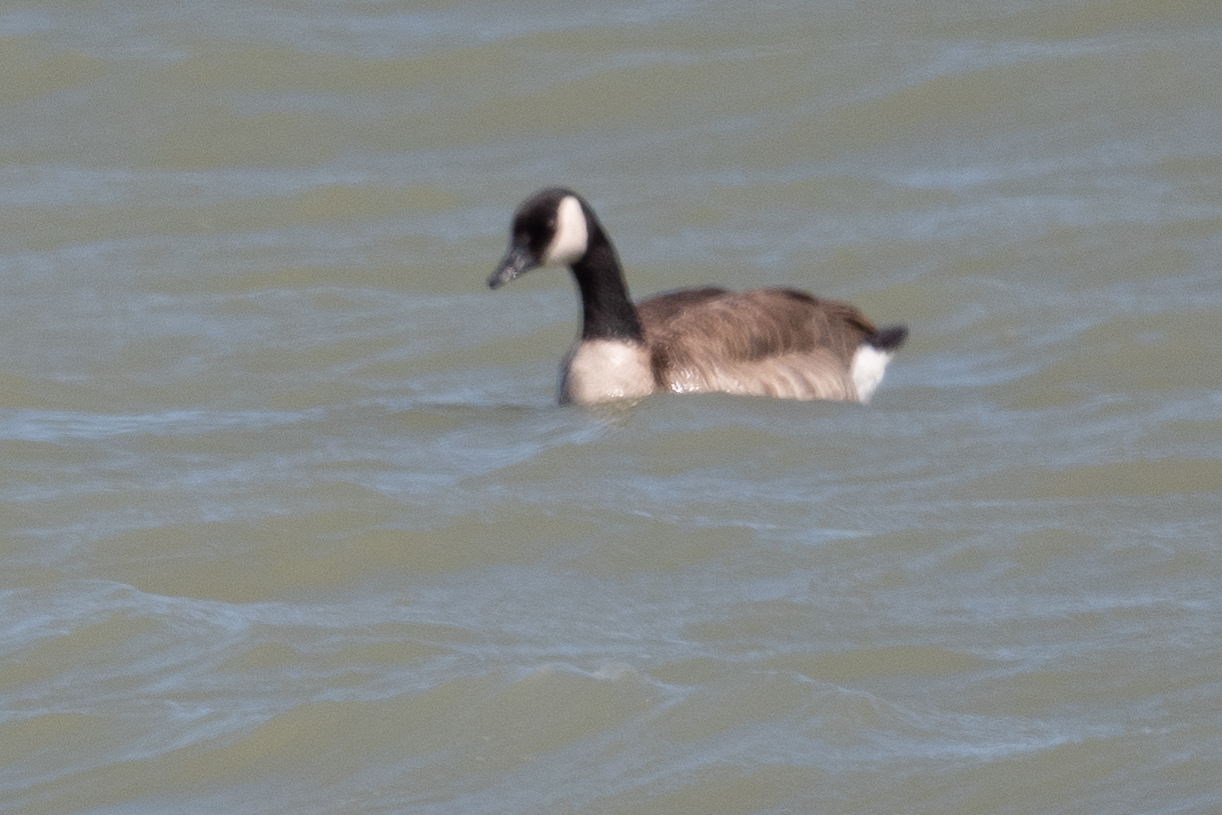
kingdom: Animalia
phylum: Chordata
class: Aves
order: Anseriformes
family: Anatidae
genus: Branta
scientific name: Branta canadensis
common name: Canada goose
